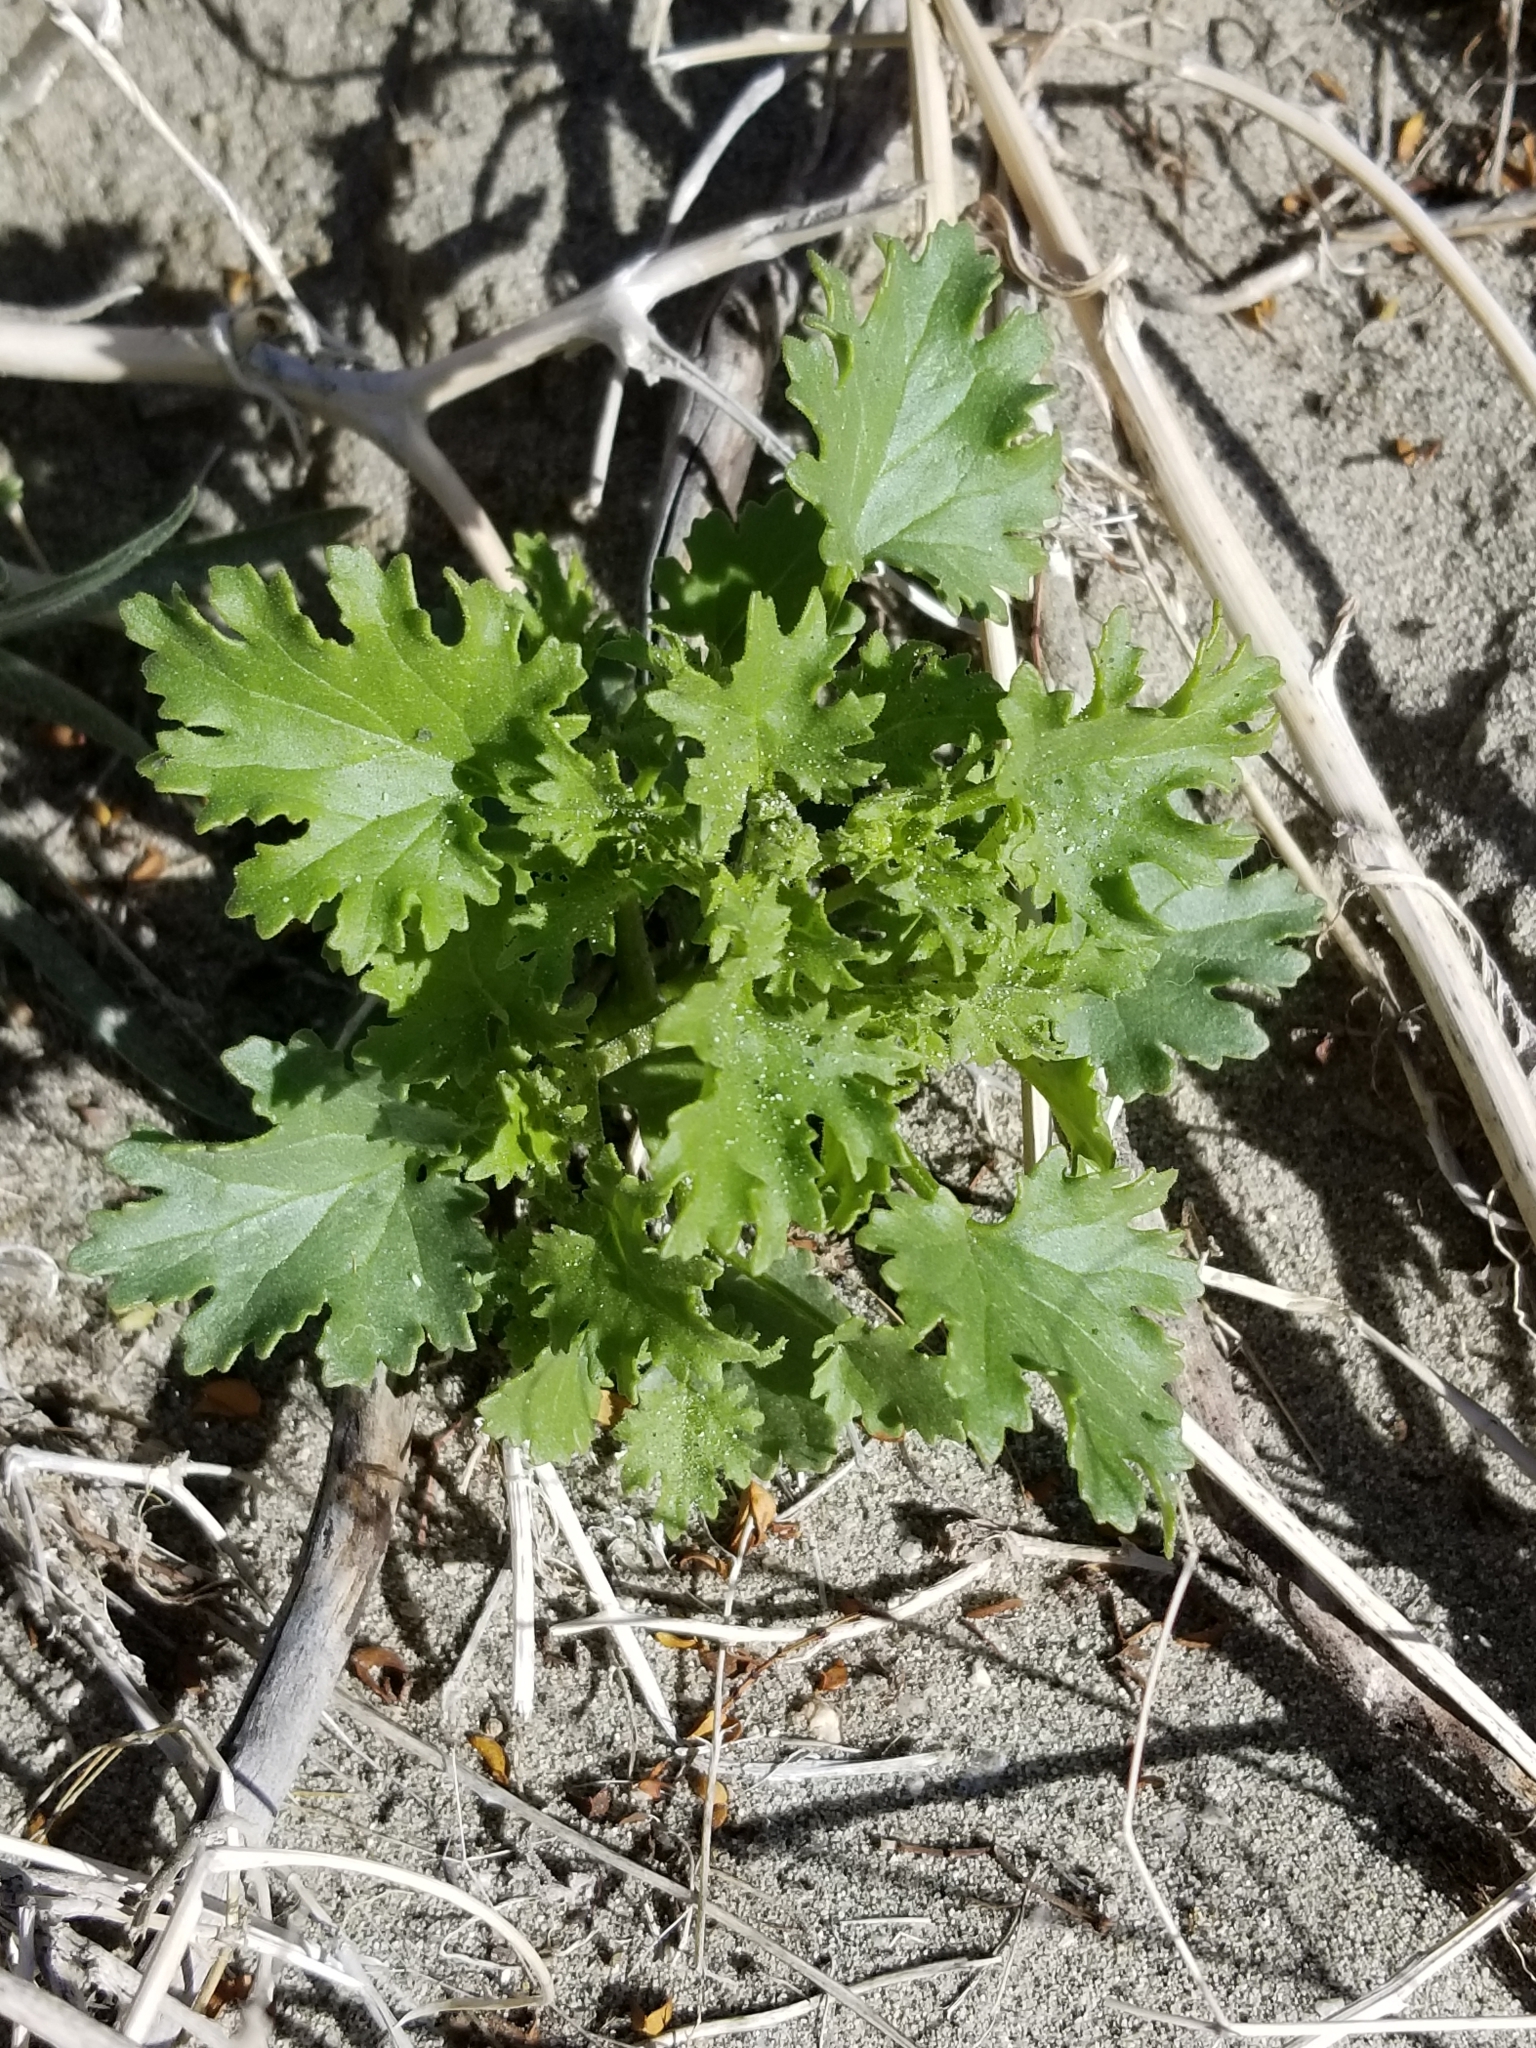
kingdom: Plantae
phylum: Tracheophyta
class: Magnoliopsida
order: Asterales
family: Asteraceae
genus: Laphamia
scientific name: Laphamia emoryi
